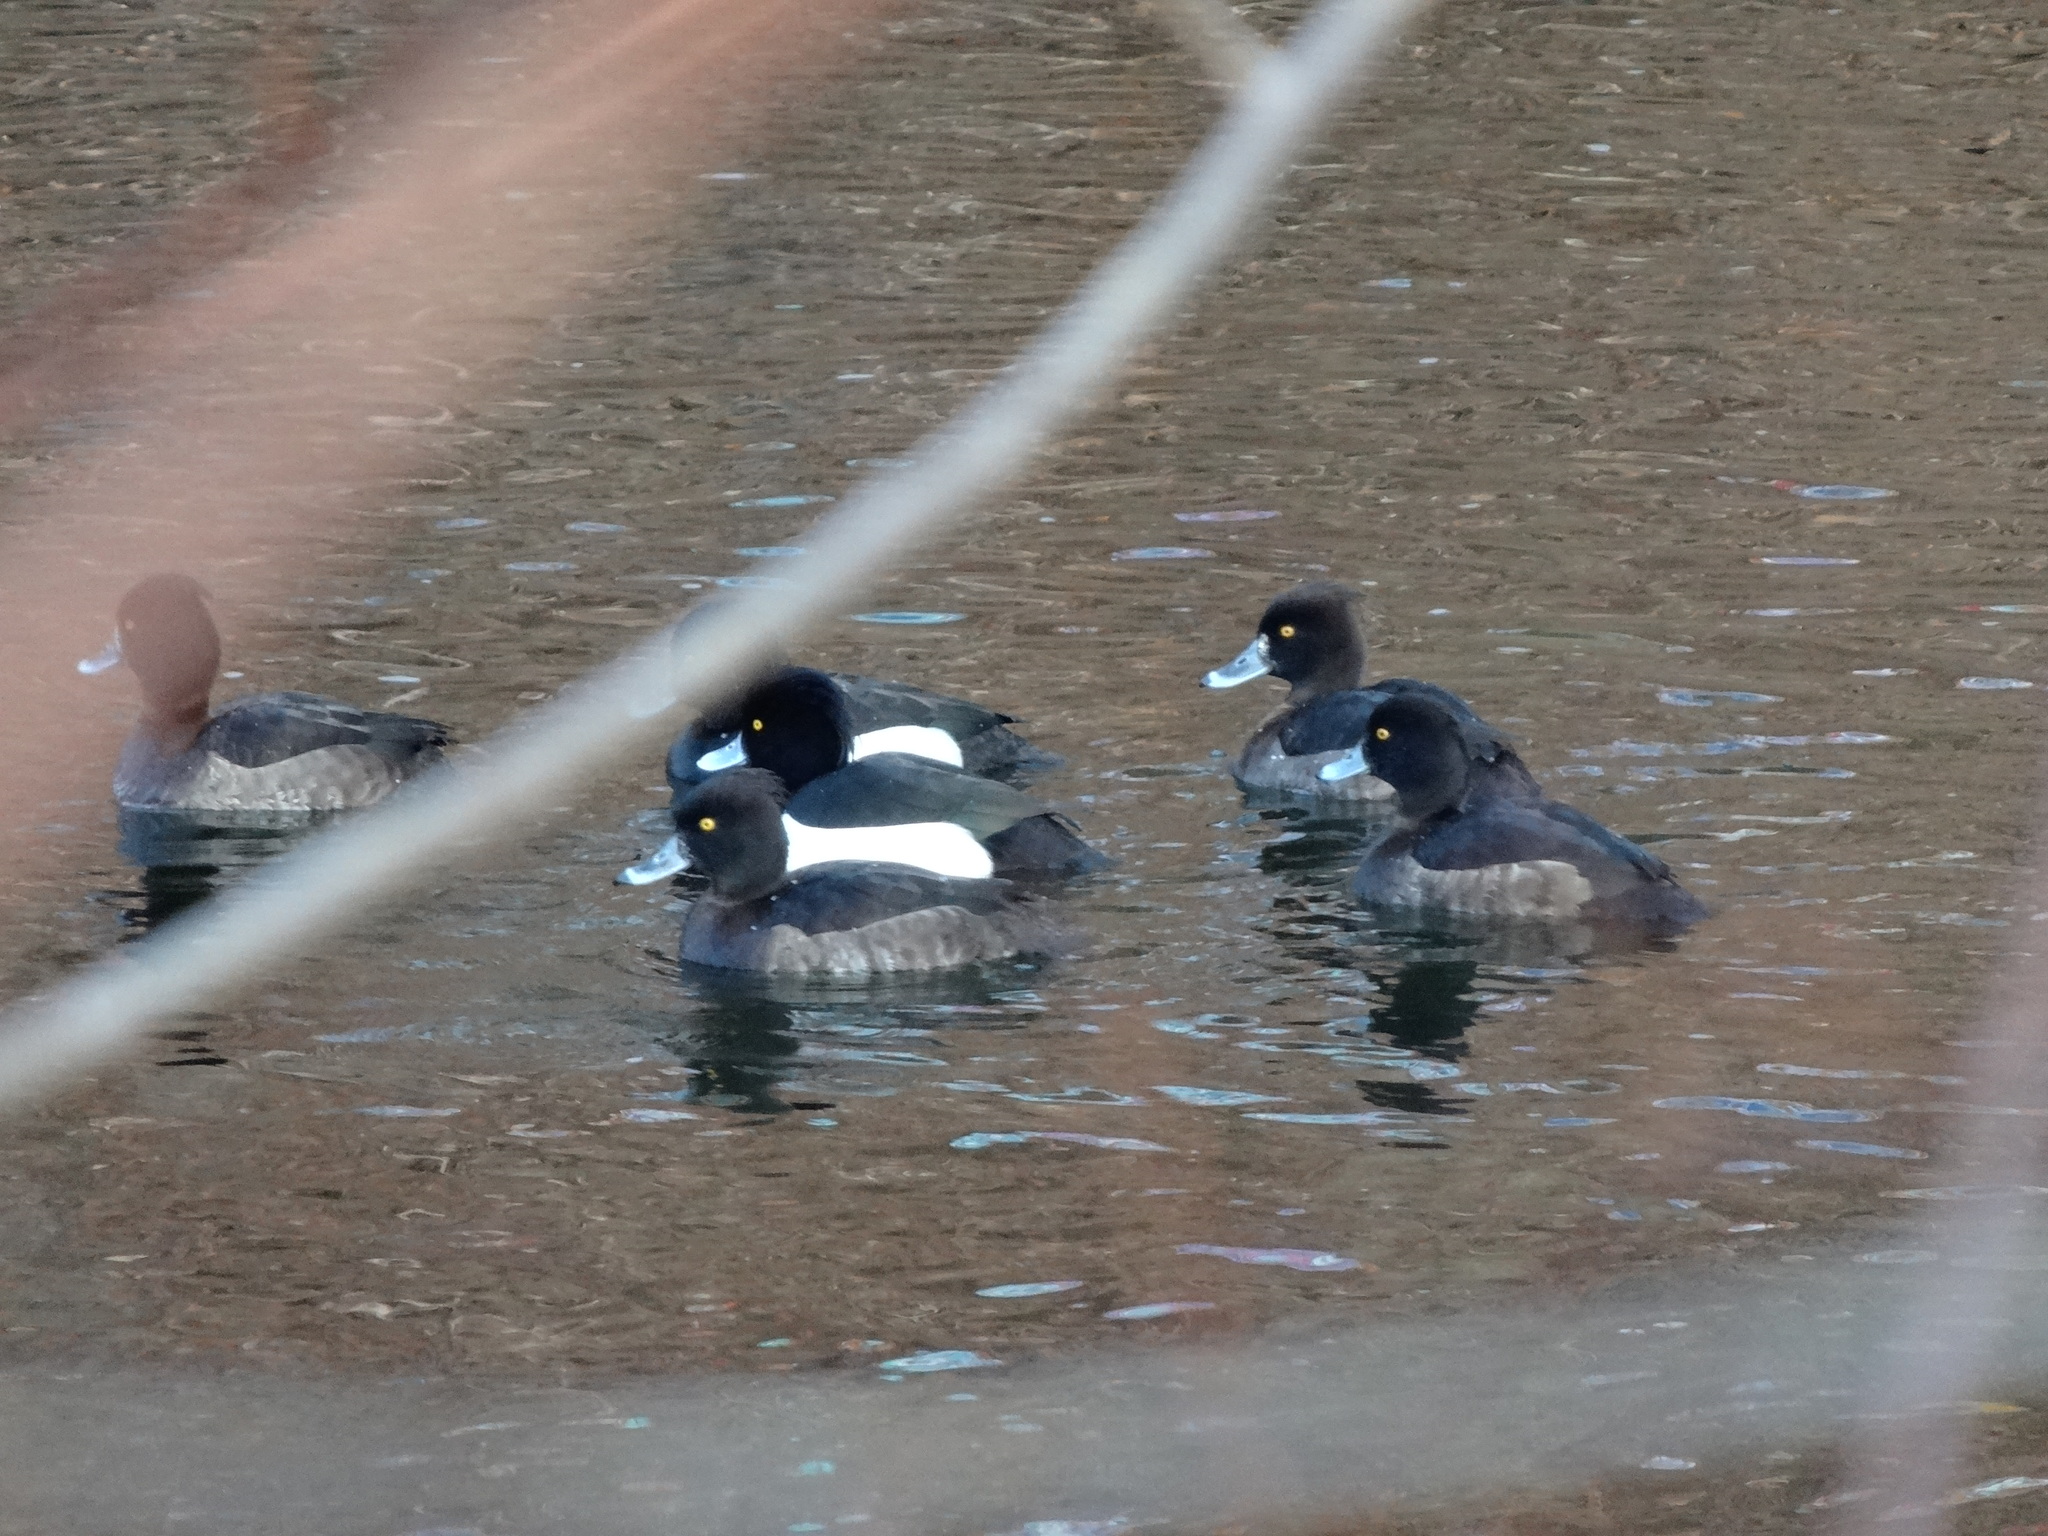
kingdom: Animalia
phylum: Chordata
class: Aves
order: Anseriformes
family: Anatidae
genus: Aythya
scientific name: Aythya fuligula
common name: Tufted duck
